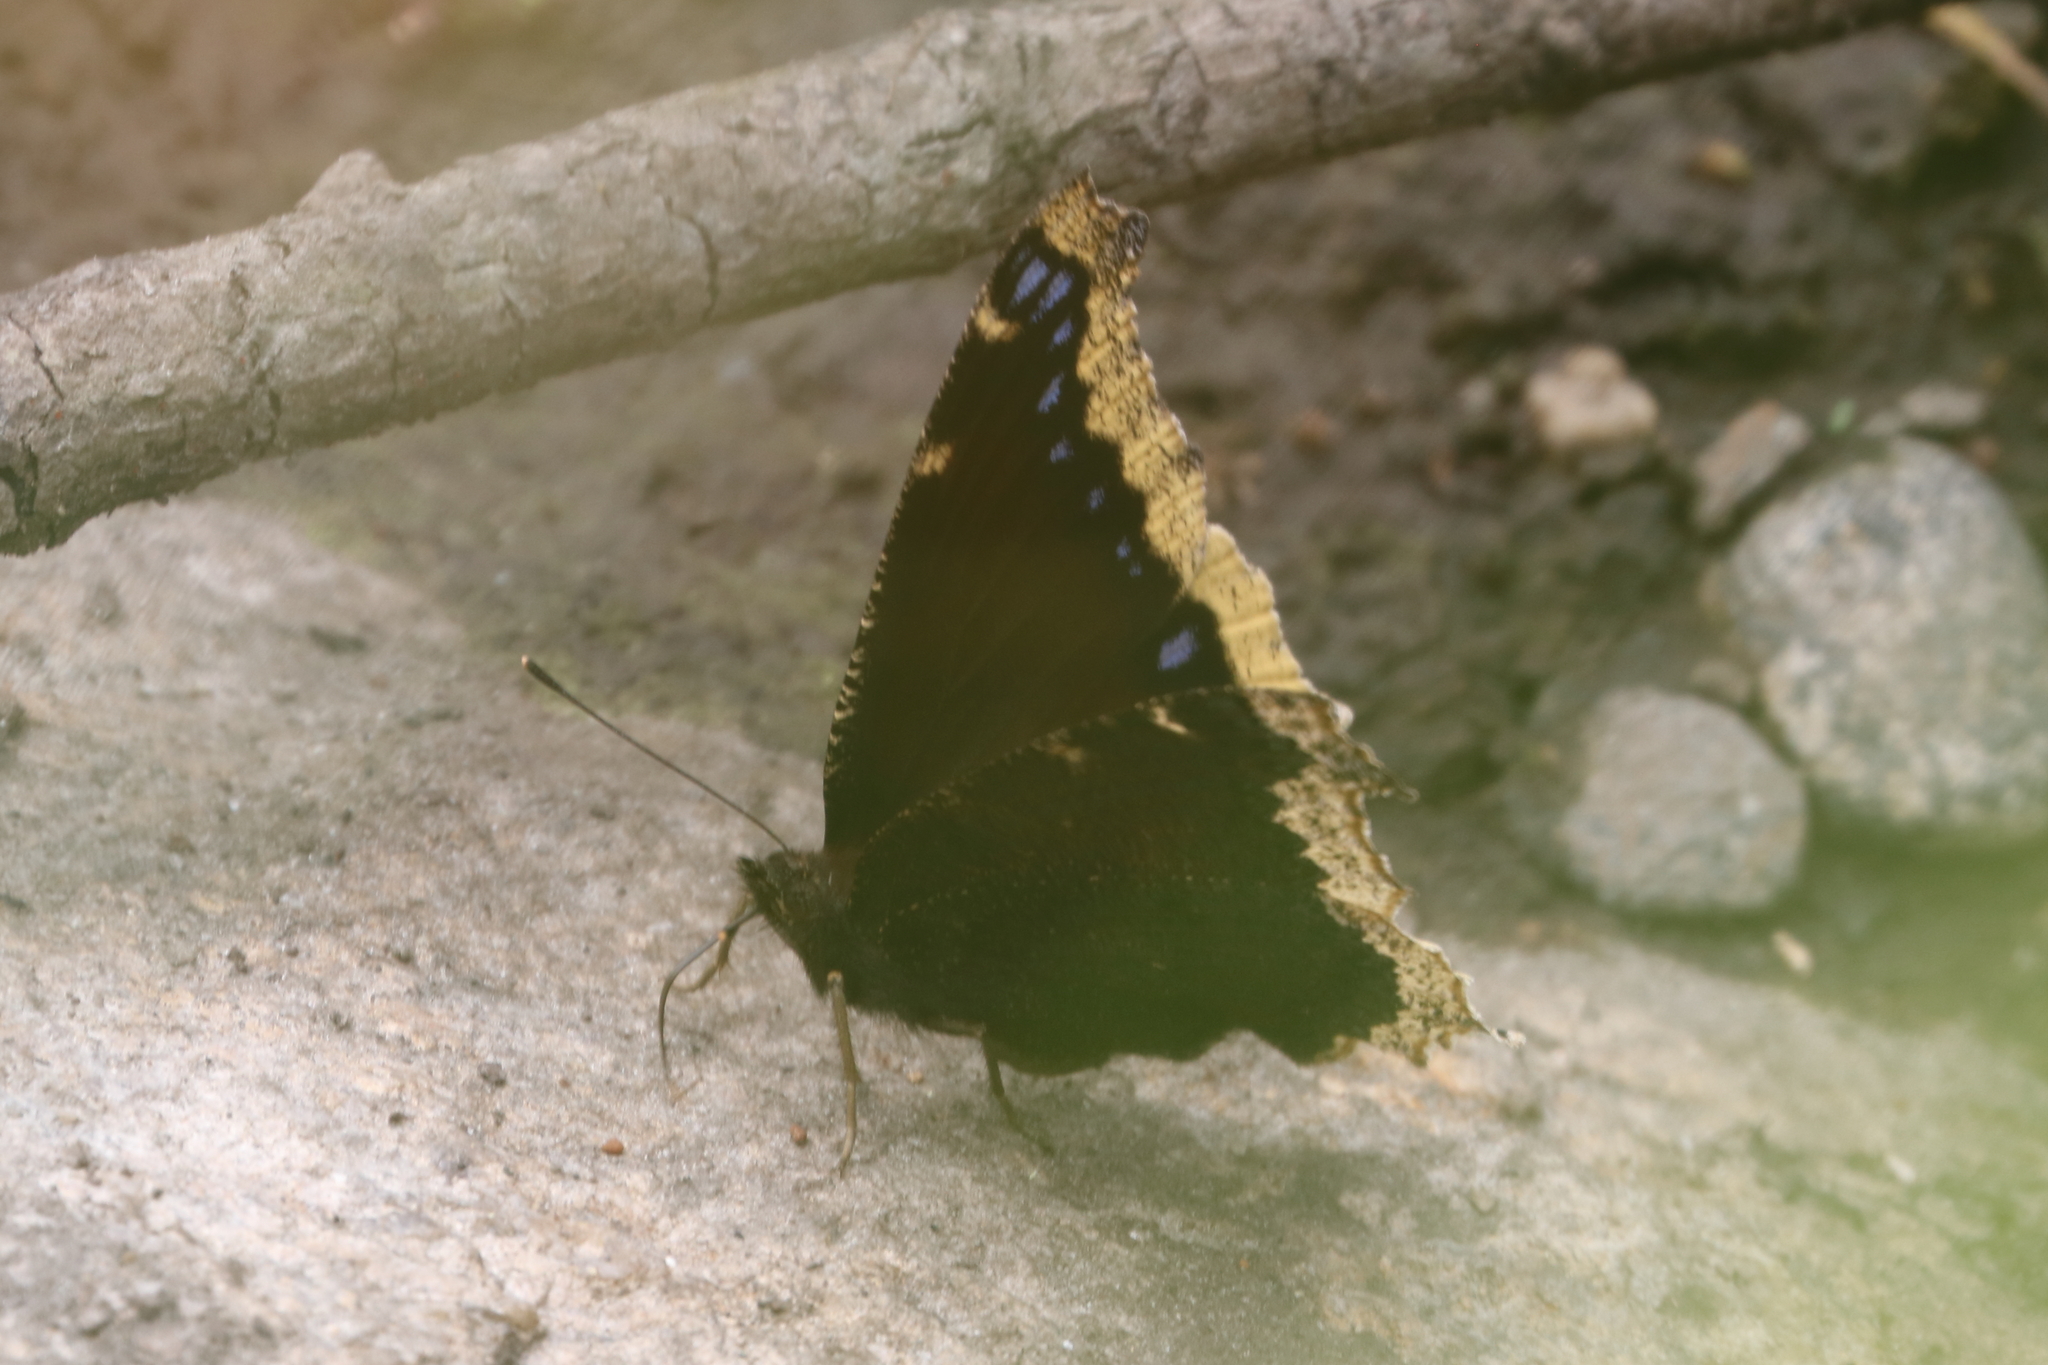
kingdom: Animalia
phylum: Arthropoda
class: Insecta
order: Lepidoptera
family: Nymphalidae
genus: Nymphalis
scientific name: Nymphalis antiopa
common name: Camberwell beauty
